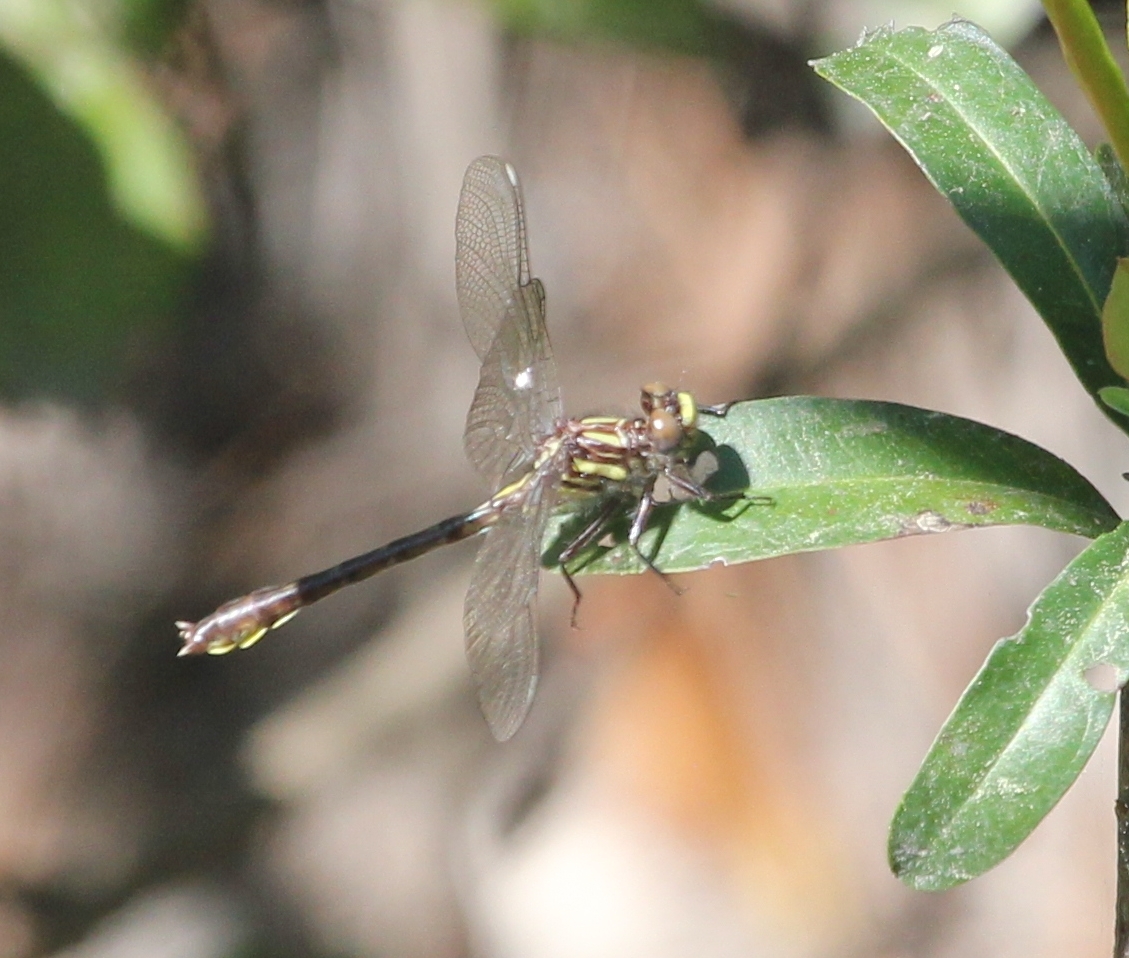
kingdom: Animalia
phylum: Arthropoda
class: Insecta
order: Odonata
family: Gomphidae
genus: Hylogomphus
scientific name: Hylogomphus apomyius
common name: Banner clubtail
